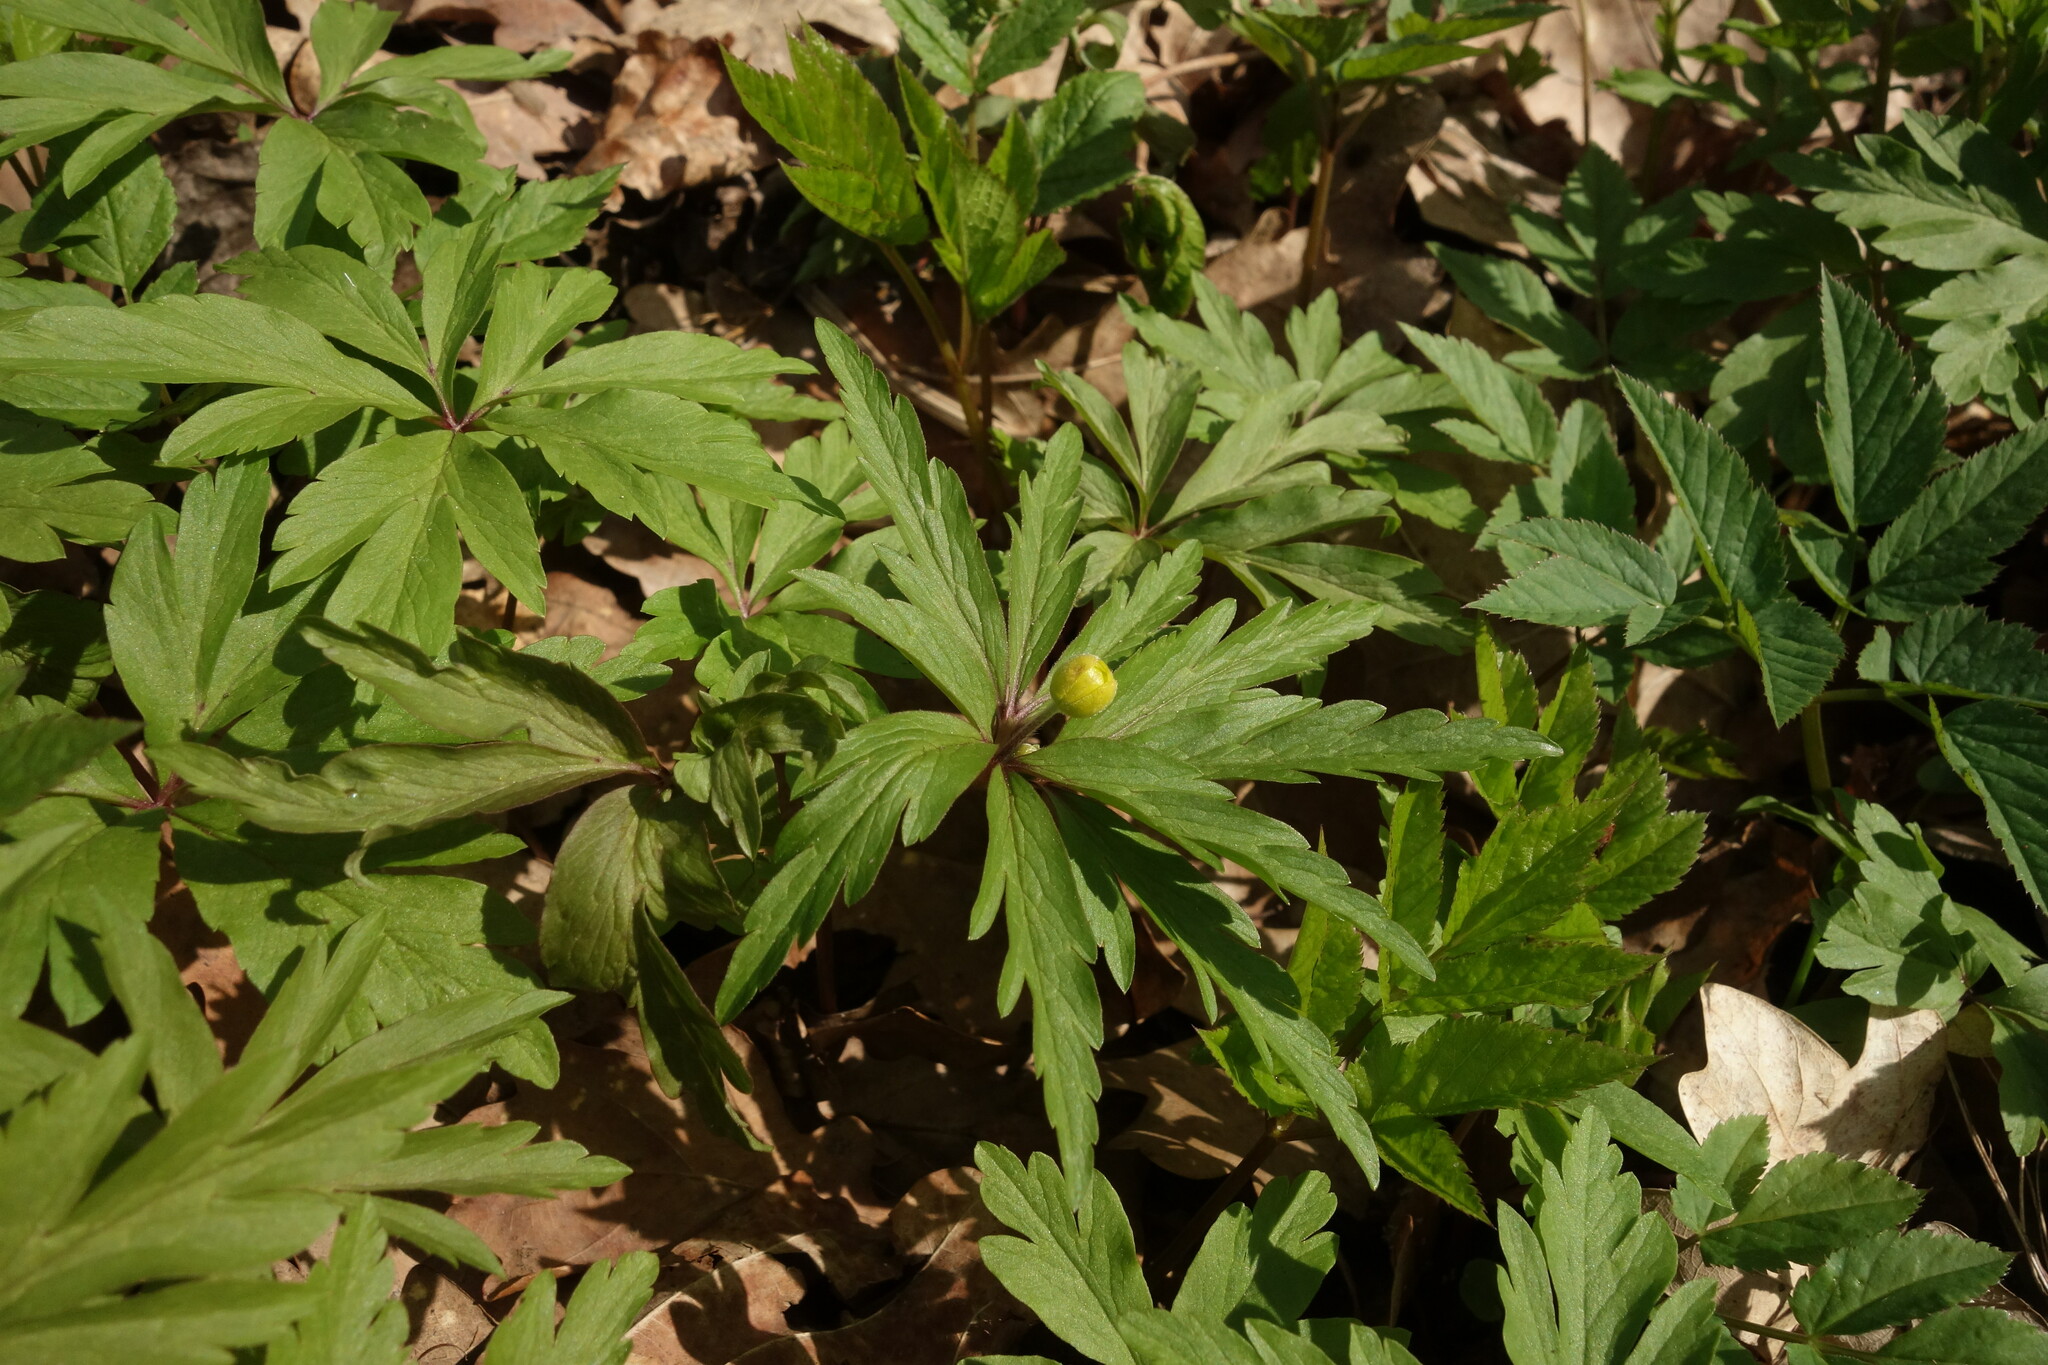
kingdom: Plantae
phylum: Tracheophyta
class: Magnoliopsida
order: Ranunculales
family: Ranunculaceae
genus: Anemone
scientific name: Anemone ranunculoides
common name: Yellow anemone
